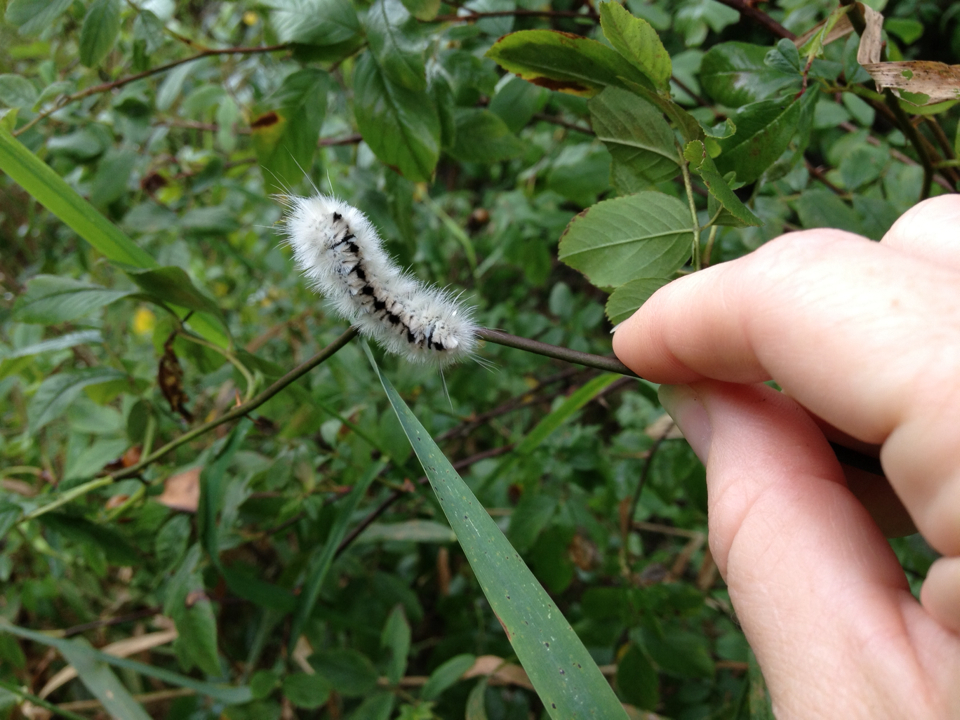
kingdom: Animalia
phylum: Arthropoda
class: Insecta
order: Lepidoptera
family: Erebidae
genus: Lophocampa
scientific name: Lophocampa caryae
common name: Hickory tussock moth
